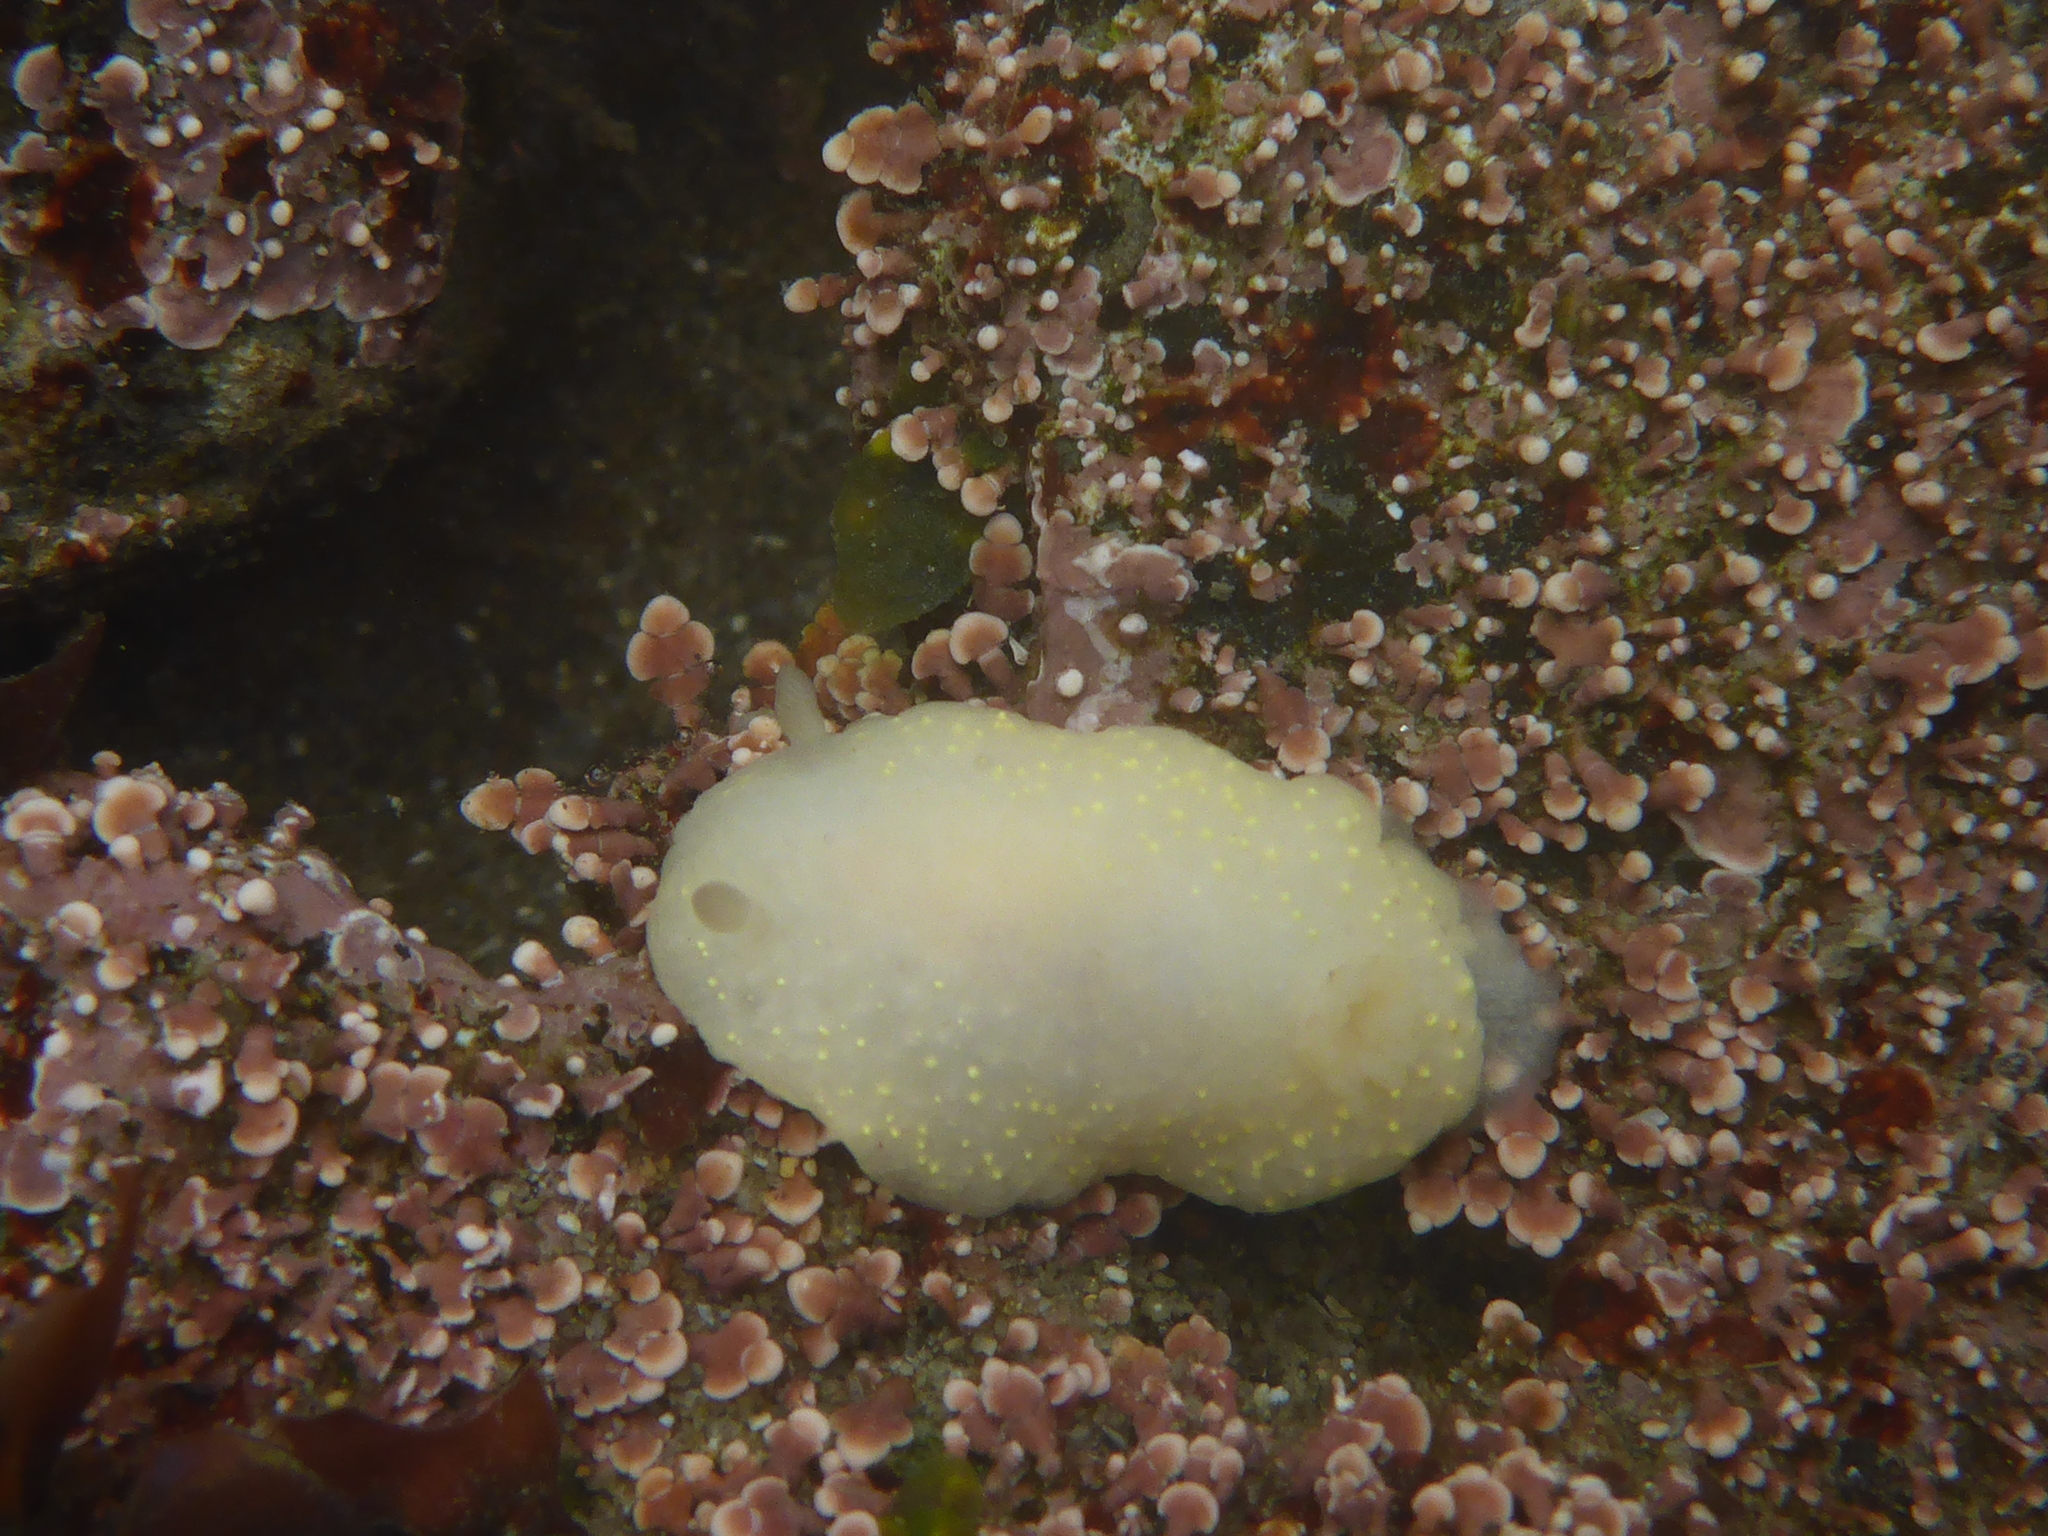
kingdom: Animalia
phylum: Mollusca
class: Gastropoda
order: Nudibranchia
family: Cadlinidae
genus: Cadlina
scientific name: Cadlina modesta
